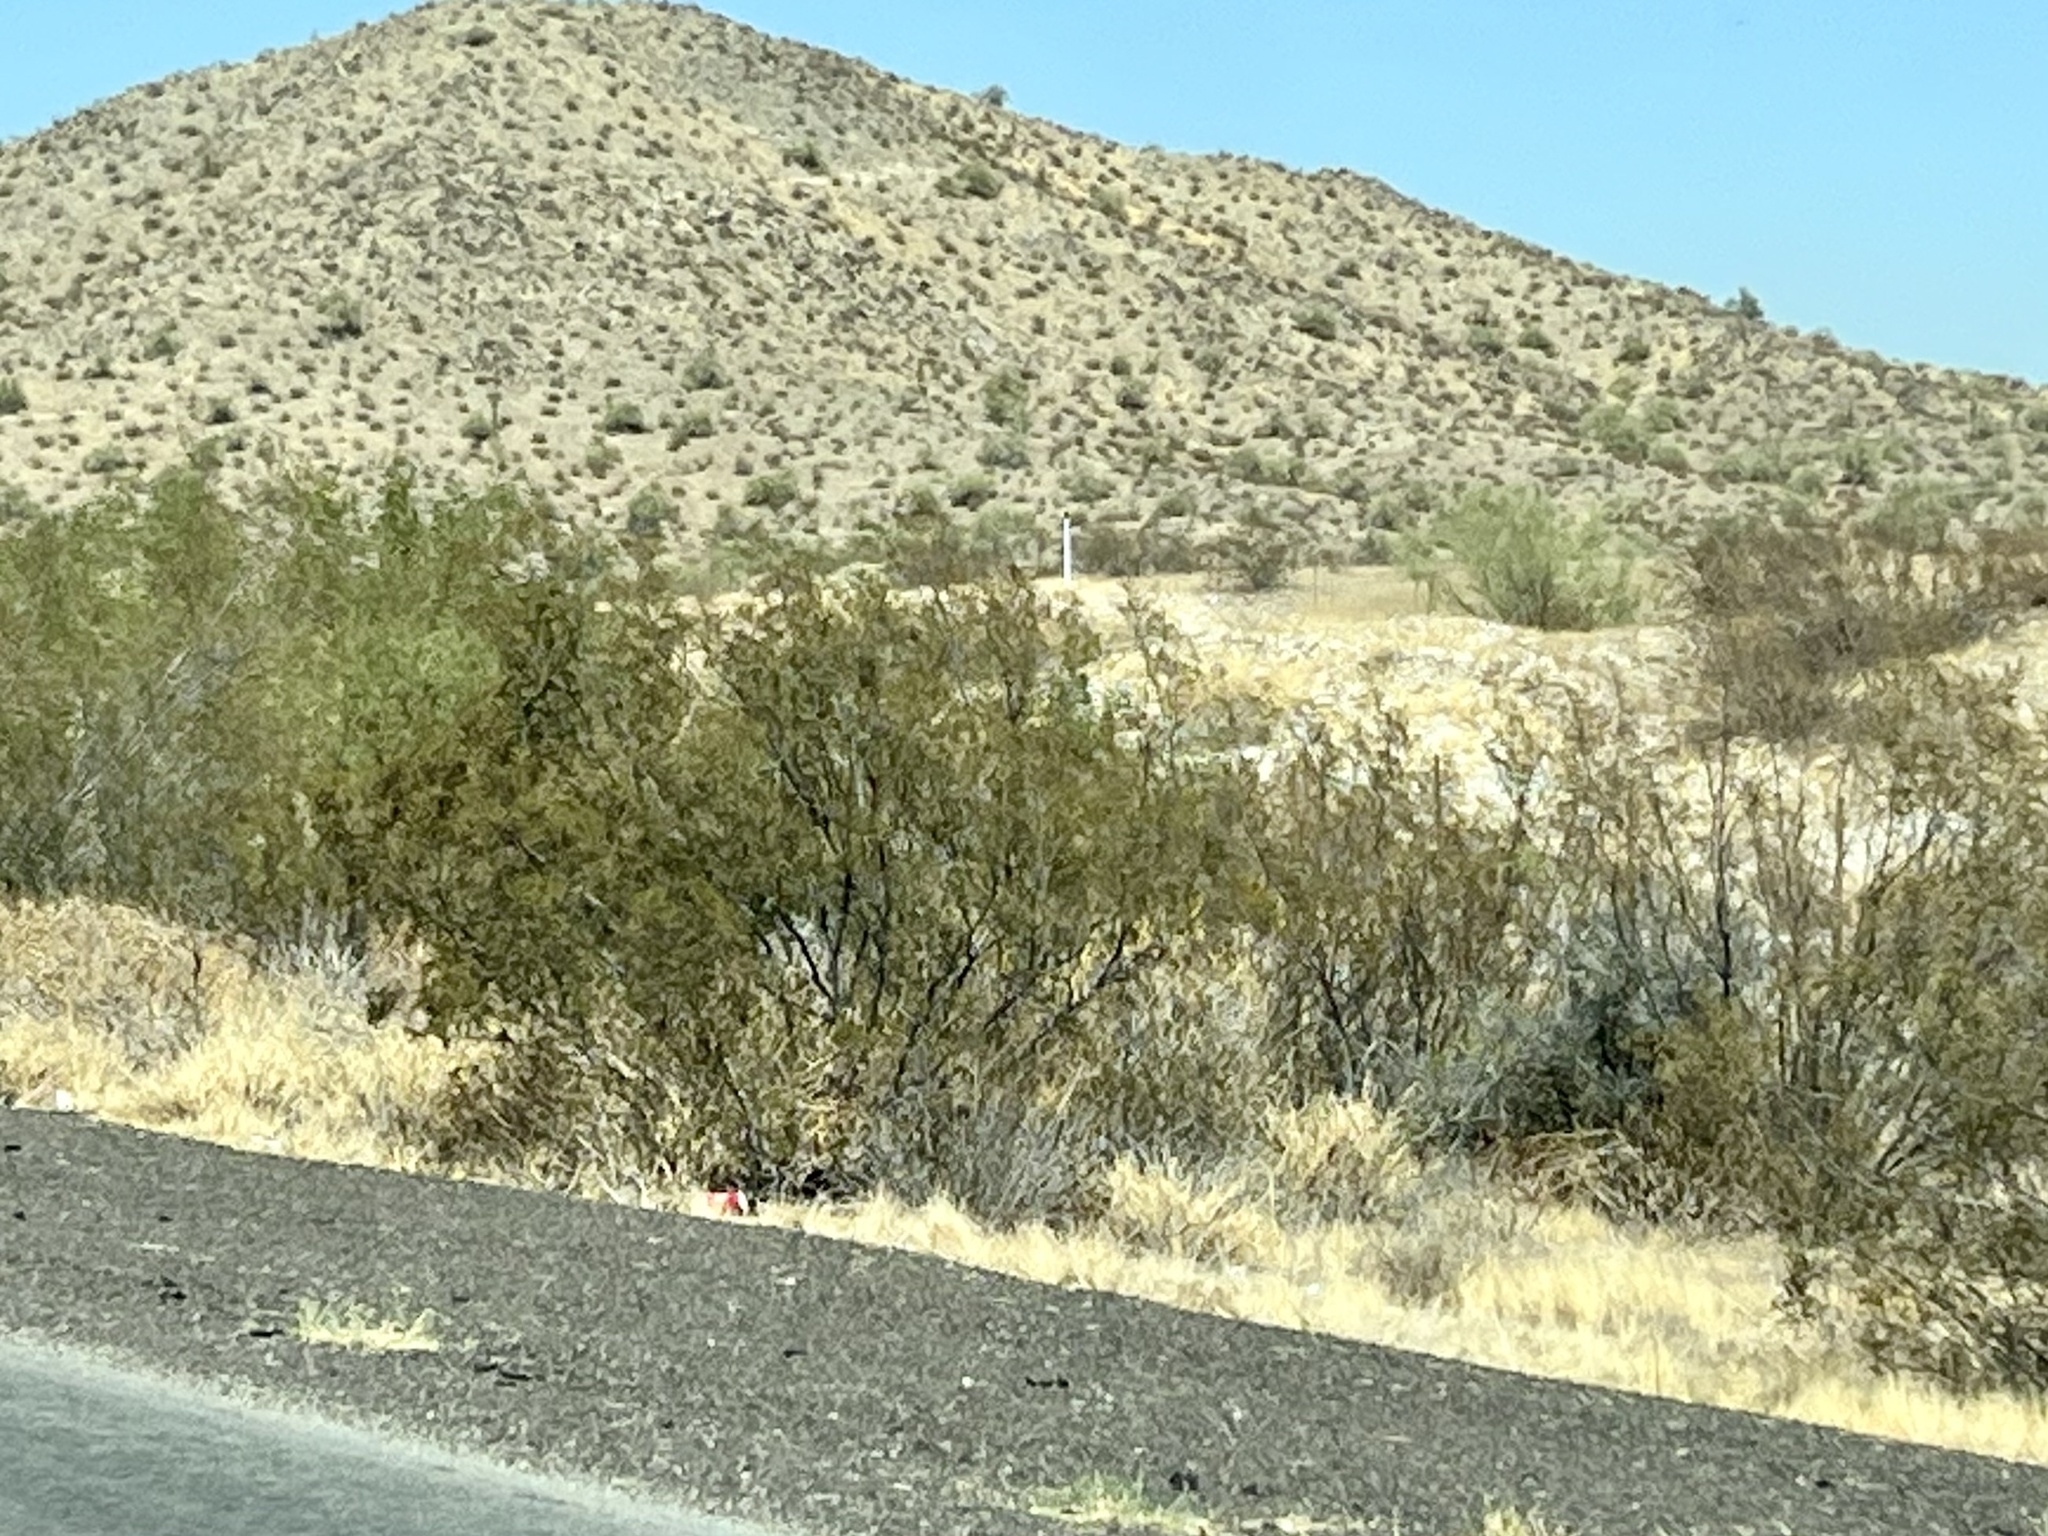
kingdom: Plantae
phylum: Tracheophyta
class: Magnoliopsida
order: Zygophyllales
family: Zygophyllaceae
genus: Larrea
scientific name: Larrea tridentata
